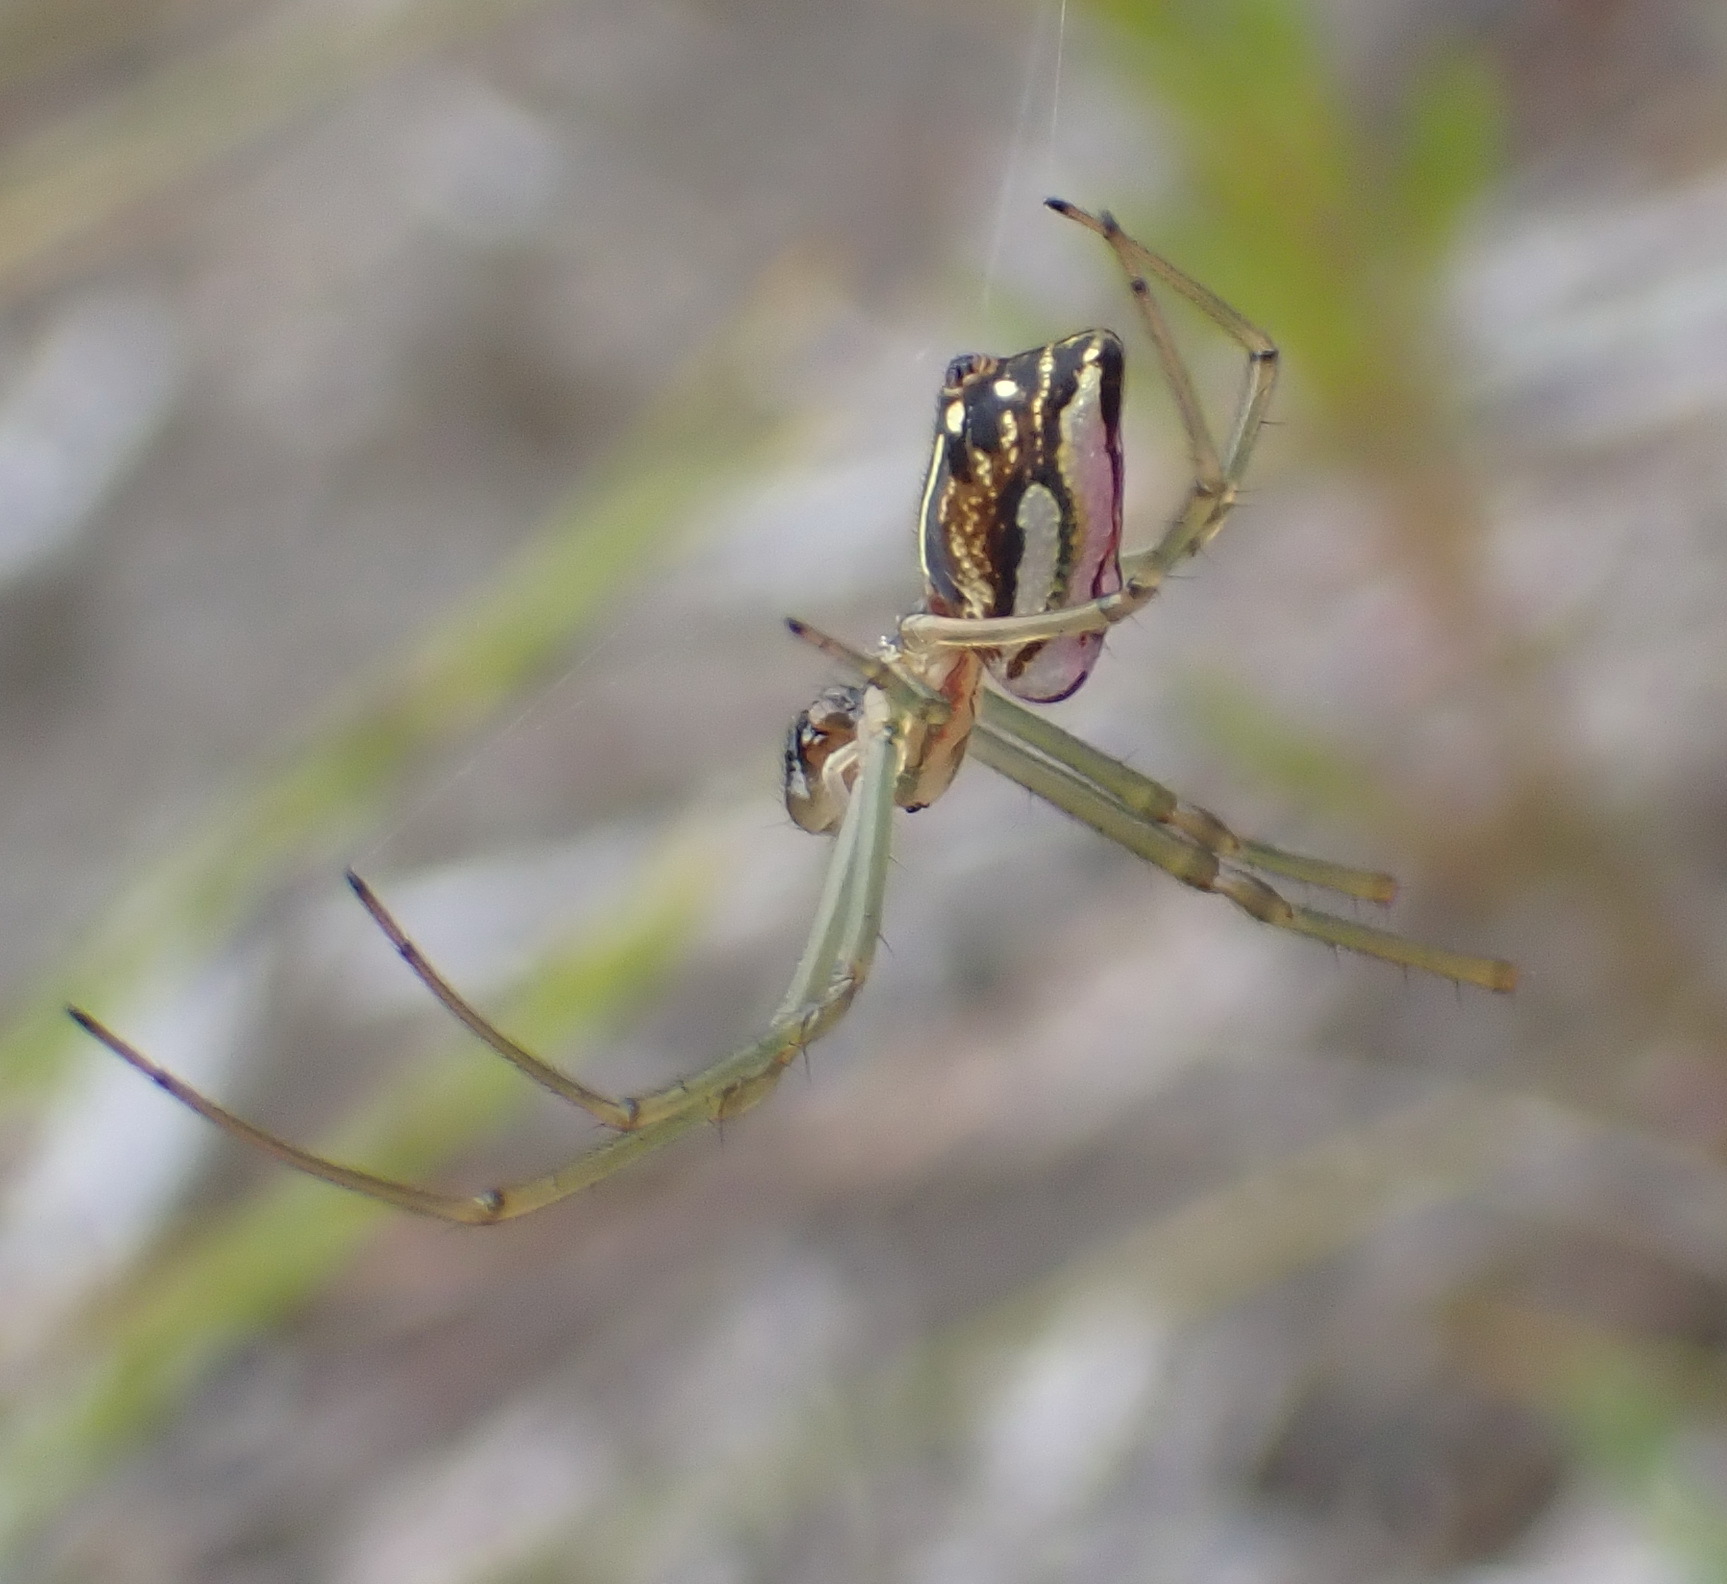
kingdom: Animalia
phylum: Arthropoda
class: Arachnida
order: Araneae
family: Tetragnathidae
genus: Leucauge
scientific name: Leucauge festiva
